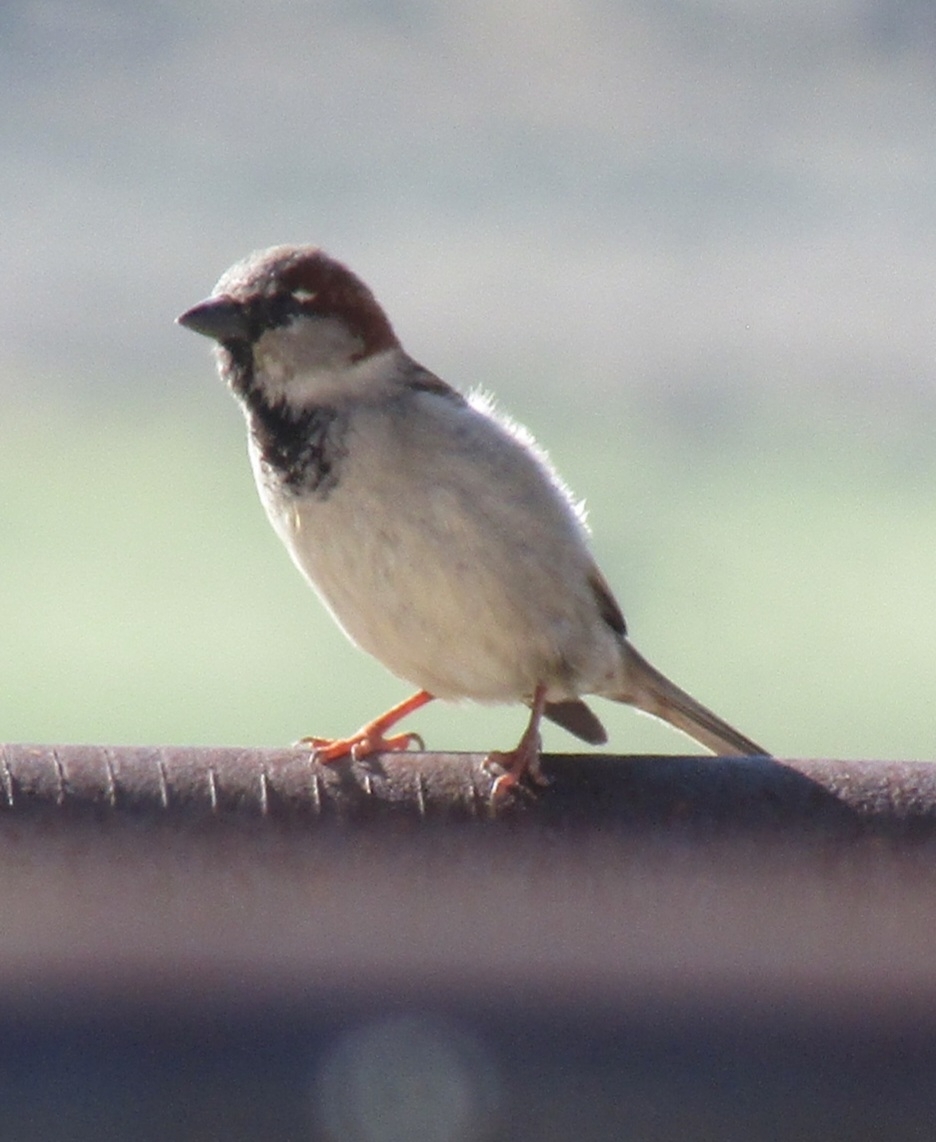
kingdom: Animalia
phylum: Chordata
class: Aves
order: Passeriformes
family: Passeridae
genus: Passer
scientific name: Passer domesticus
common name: House sparrow
